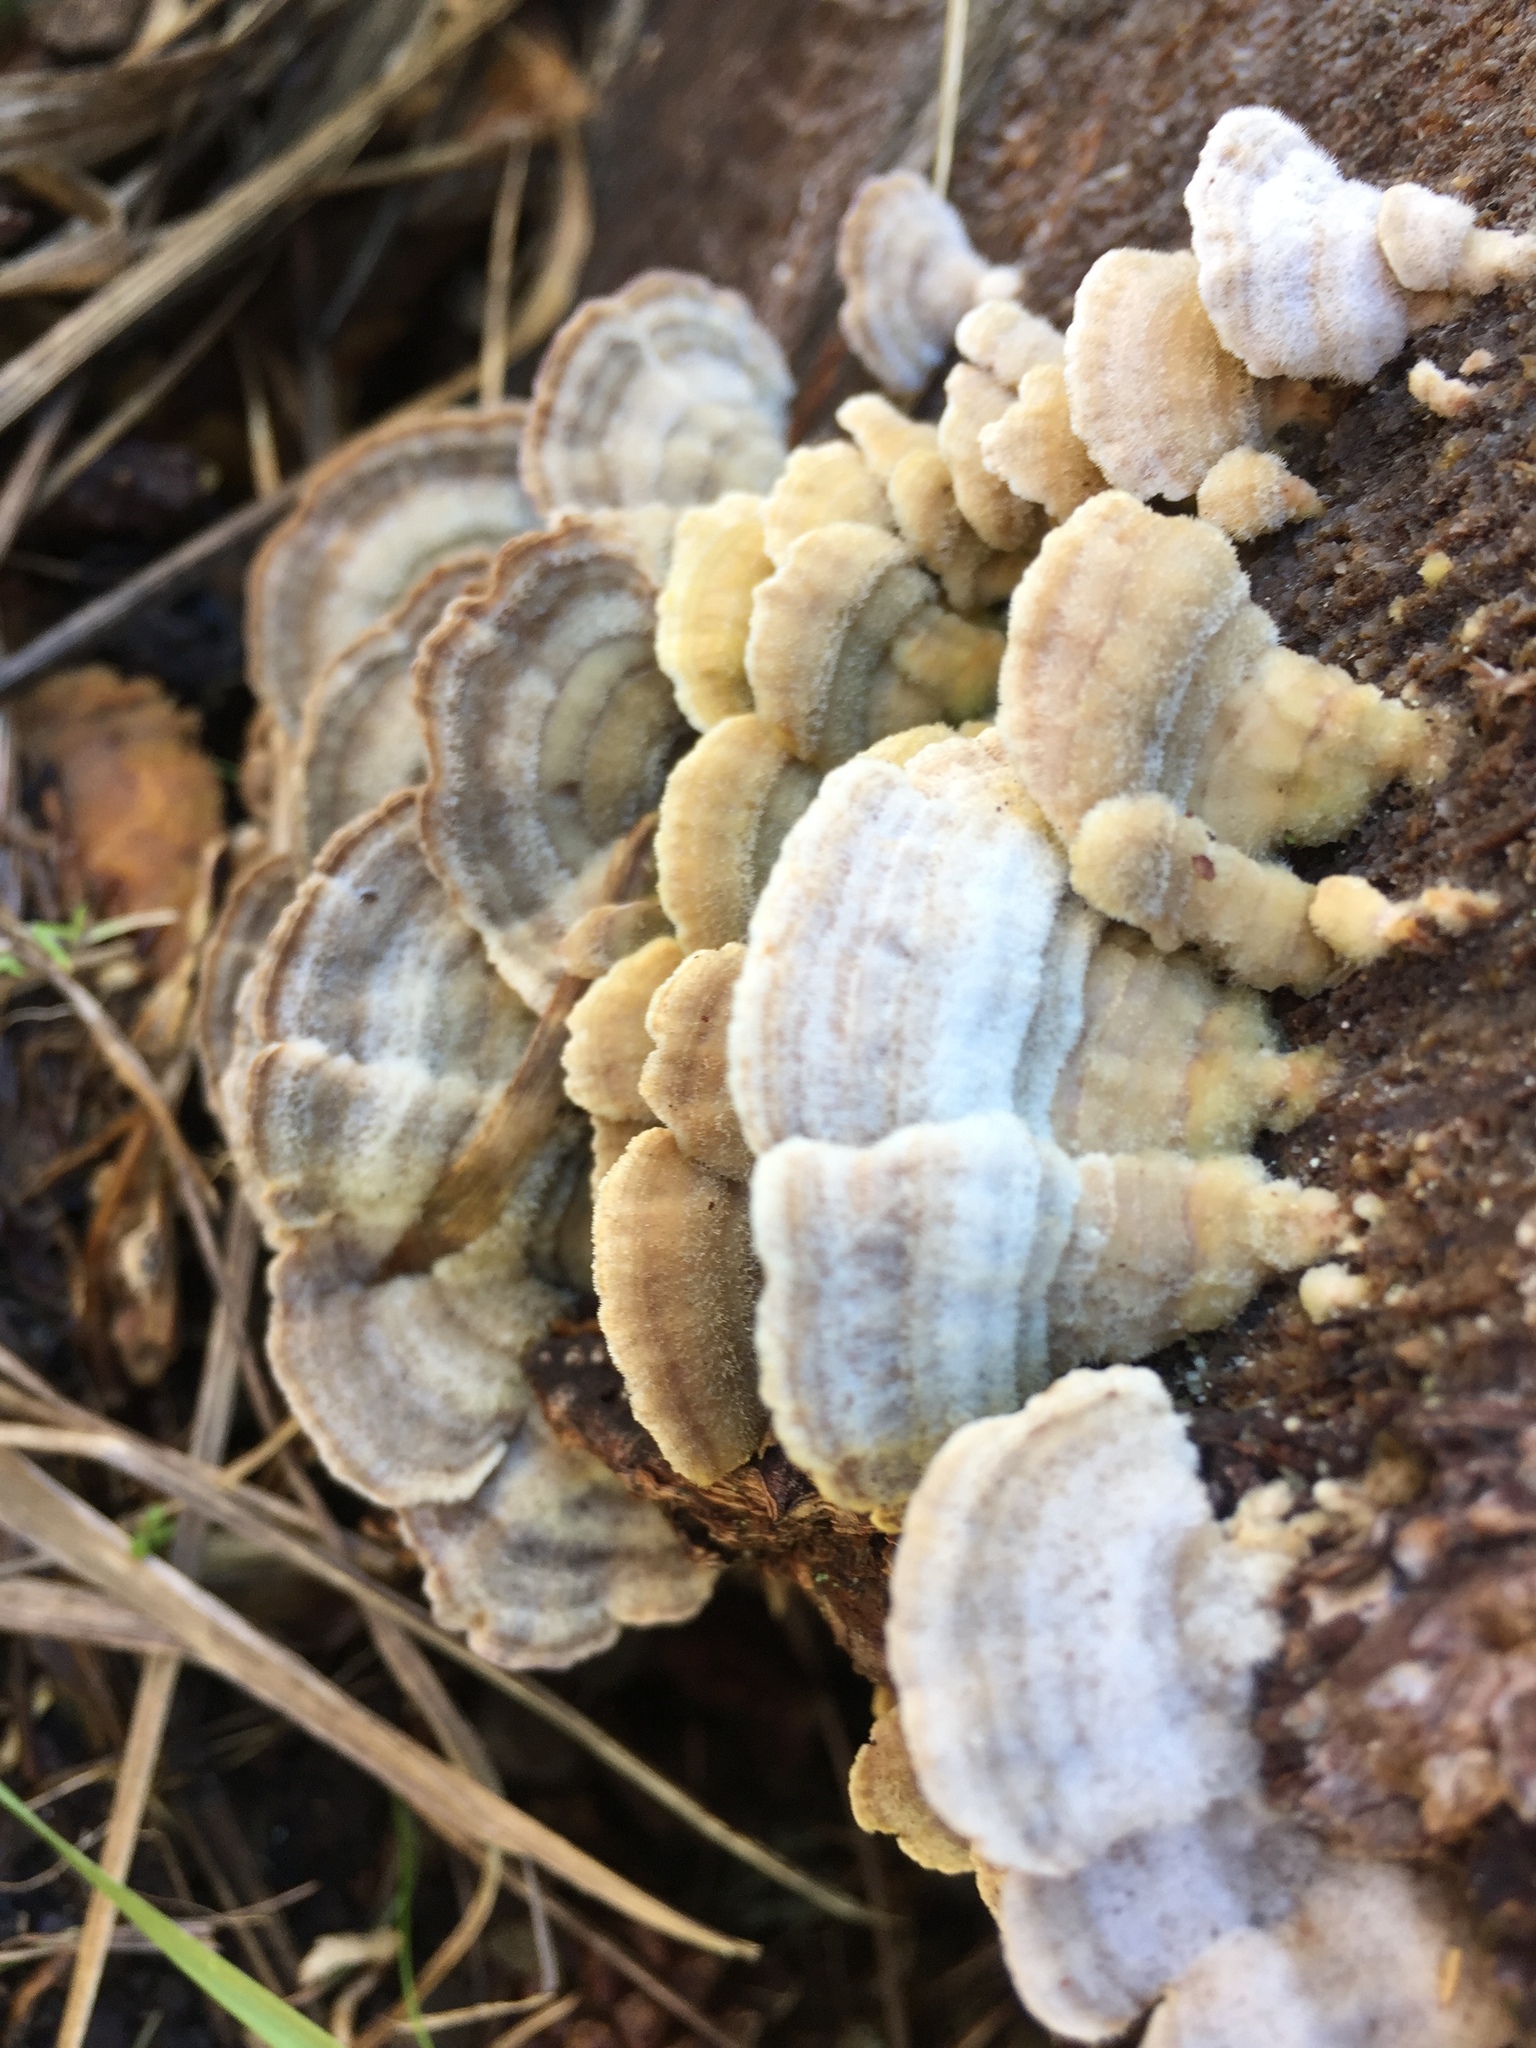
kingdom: Fungi
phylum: Basidiomycota
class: Agaricomycetes
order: Polyporales
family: Polyporaceae
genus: Trametes
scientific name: Trametes versicolor
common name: Turkeytail
